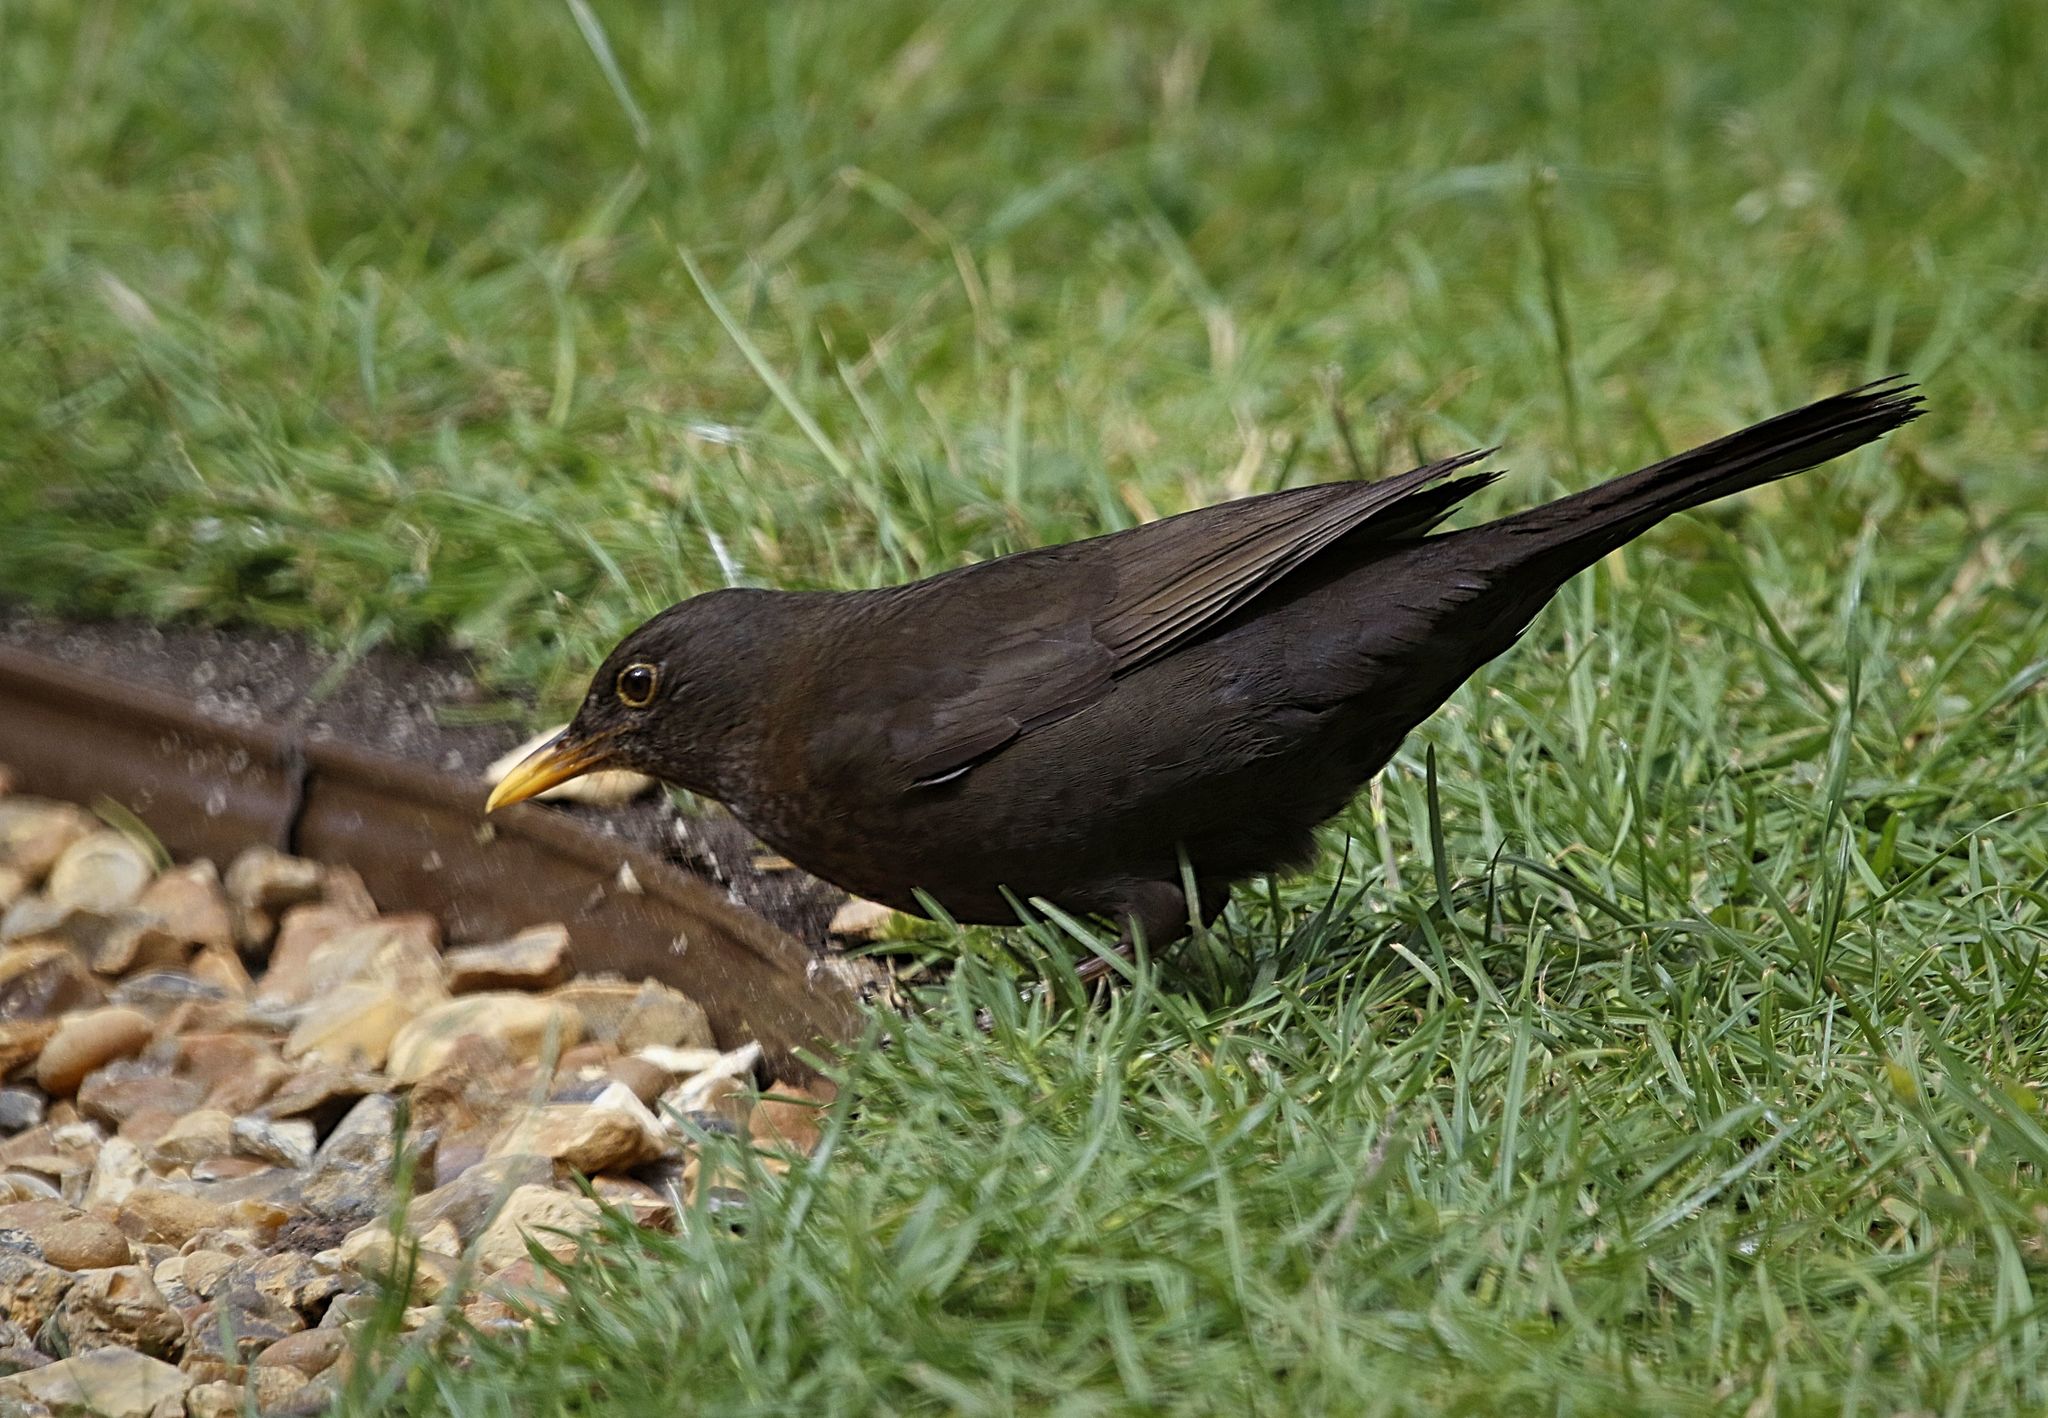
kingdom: Animalia
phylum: Chordata
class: Aves
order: Passeriformes
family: Turdidae
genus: Turdus
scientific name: Turdus merula
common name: Common blackbird
